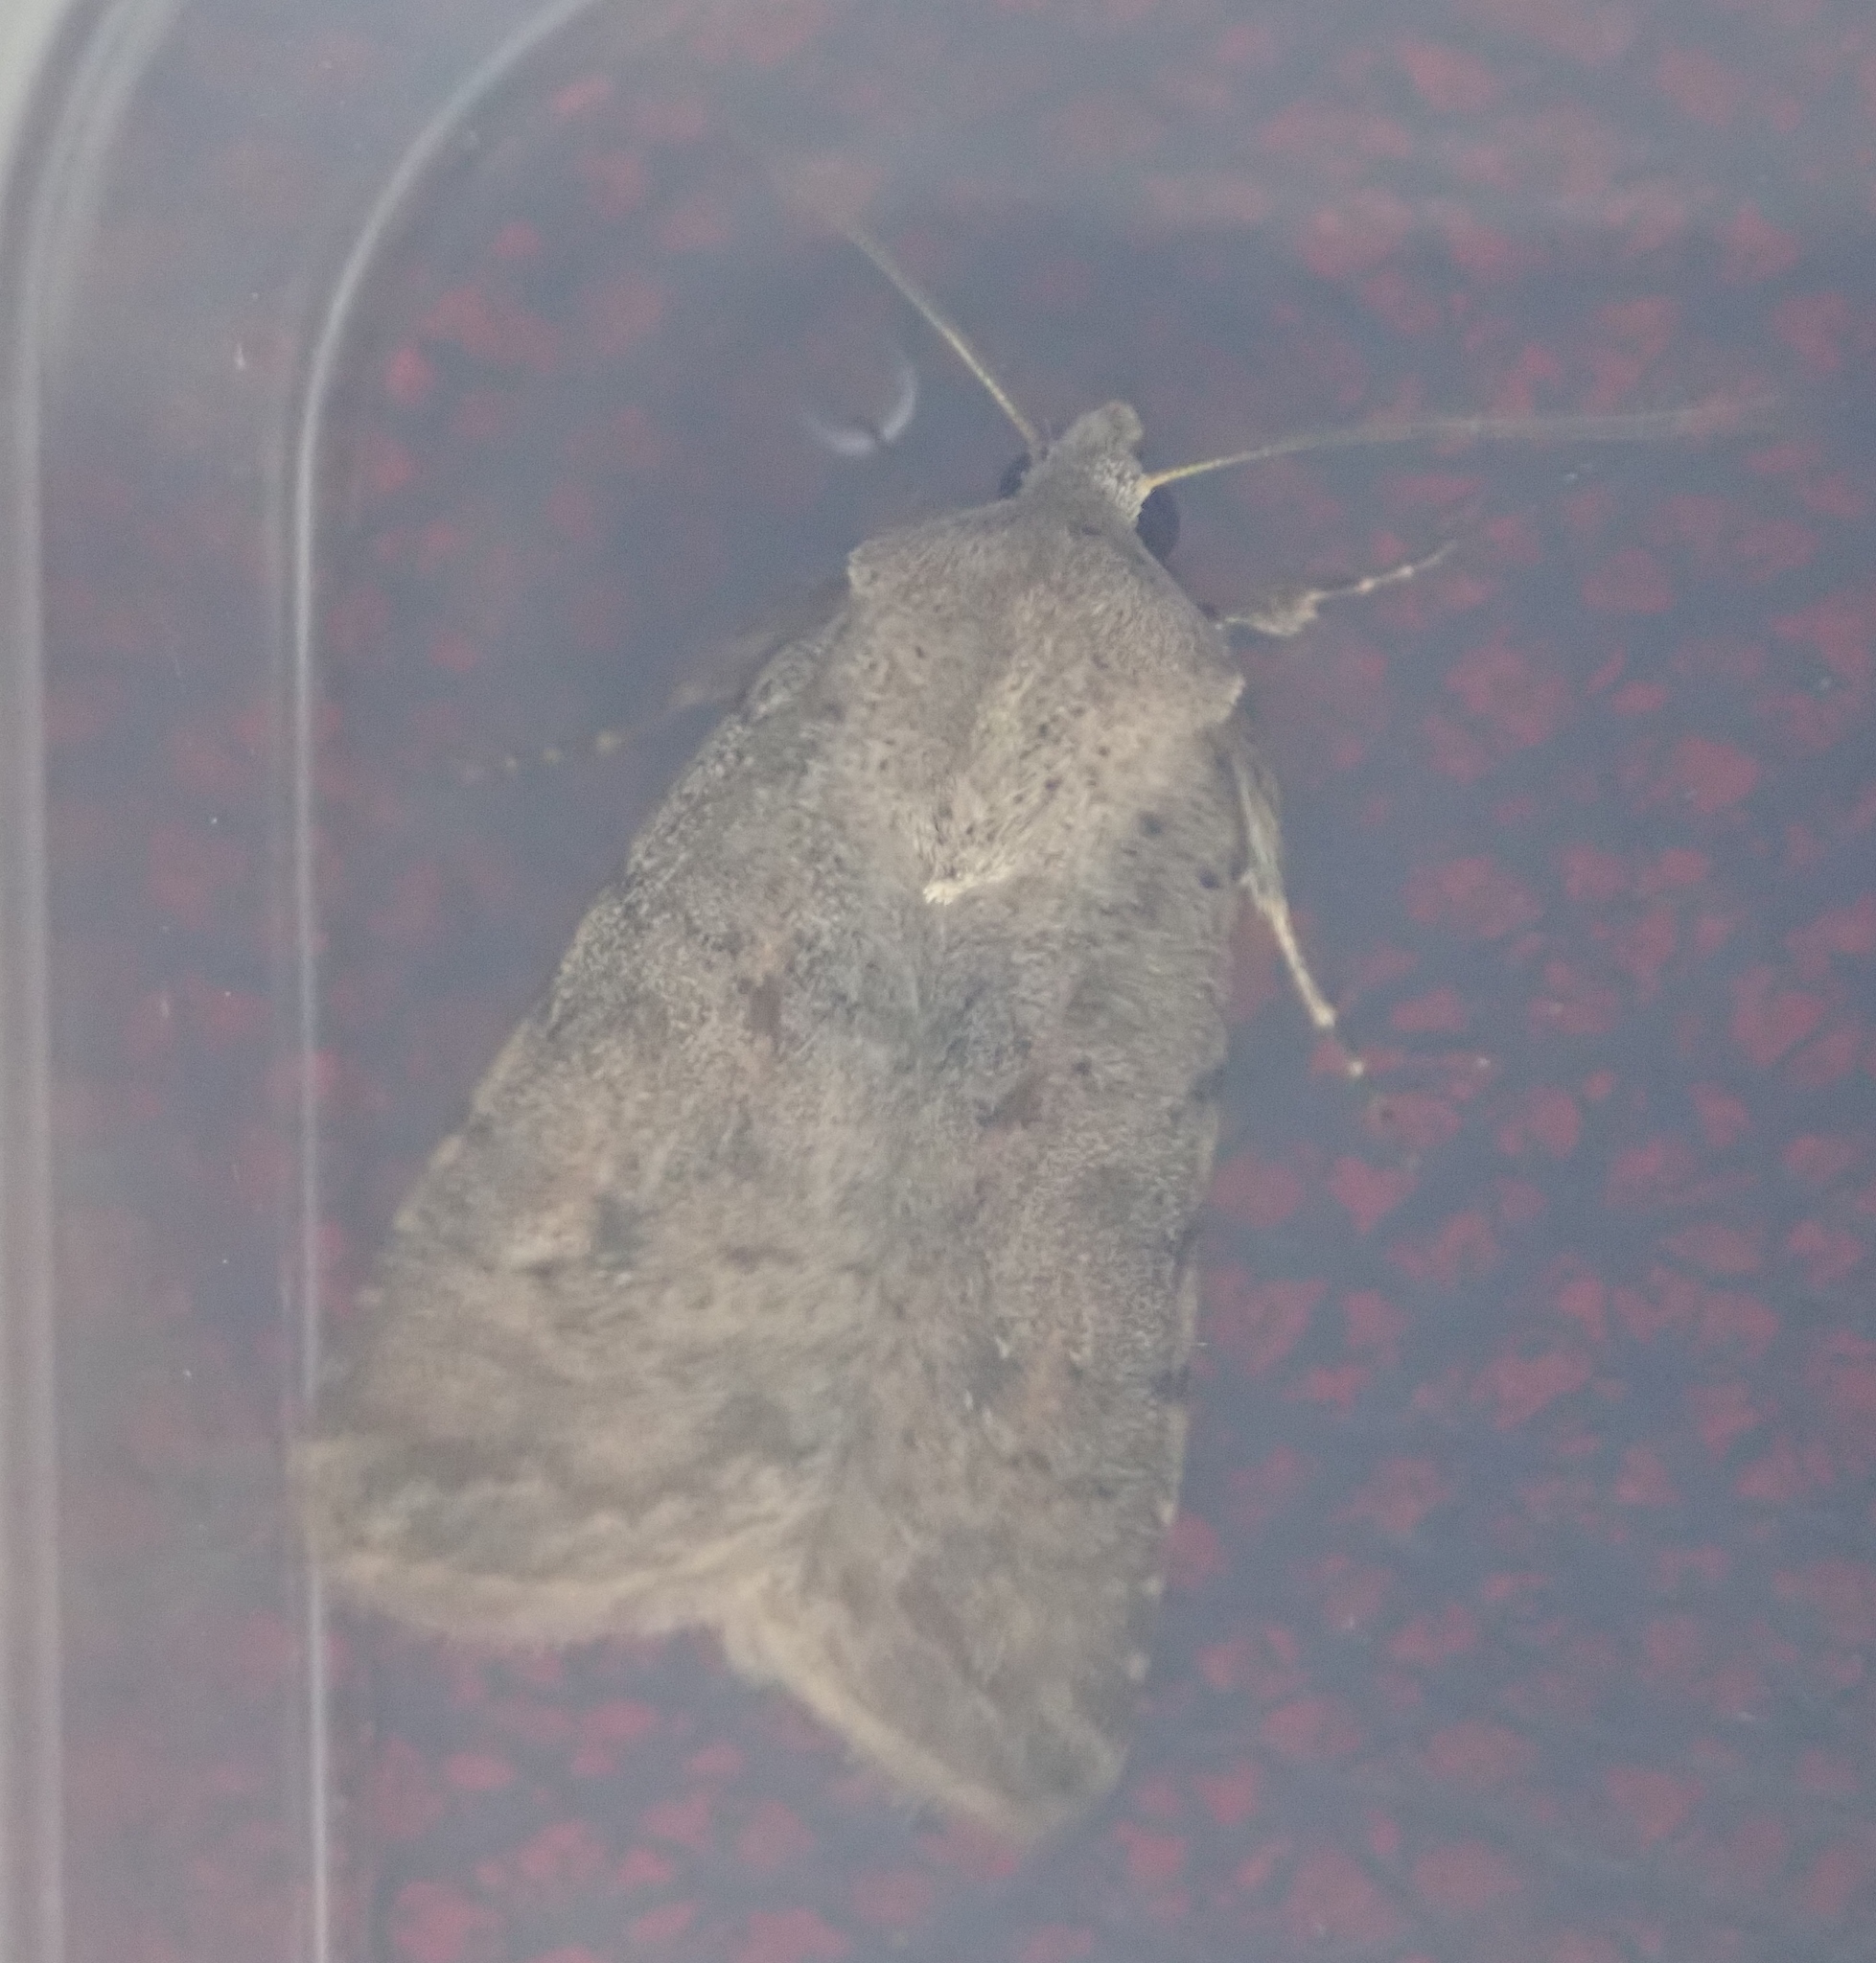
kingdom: Animalia
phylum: Arthropoda
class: Insecta
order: Lepidoptera
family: Noctuidae
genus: Caradrina
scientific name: Caradrina clavipalpis
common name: Pale mottled willow
